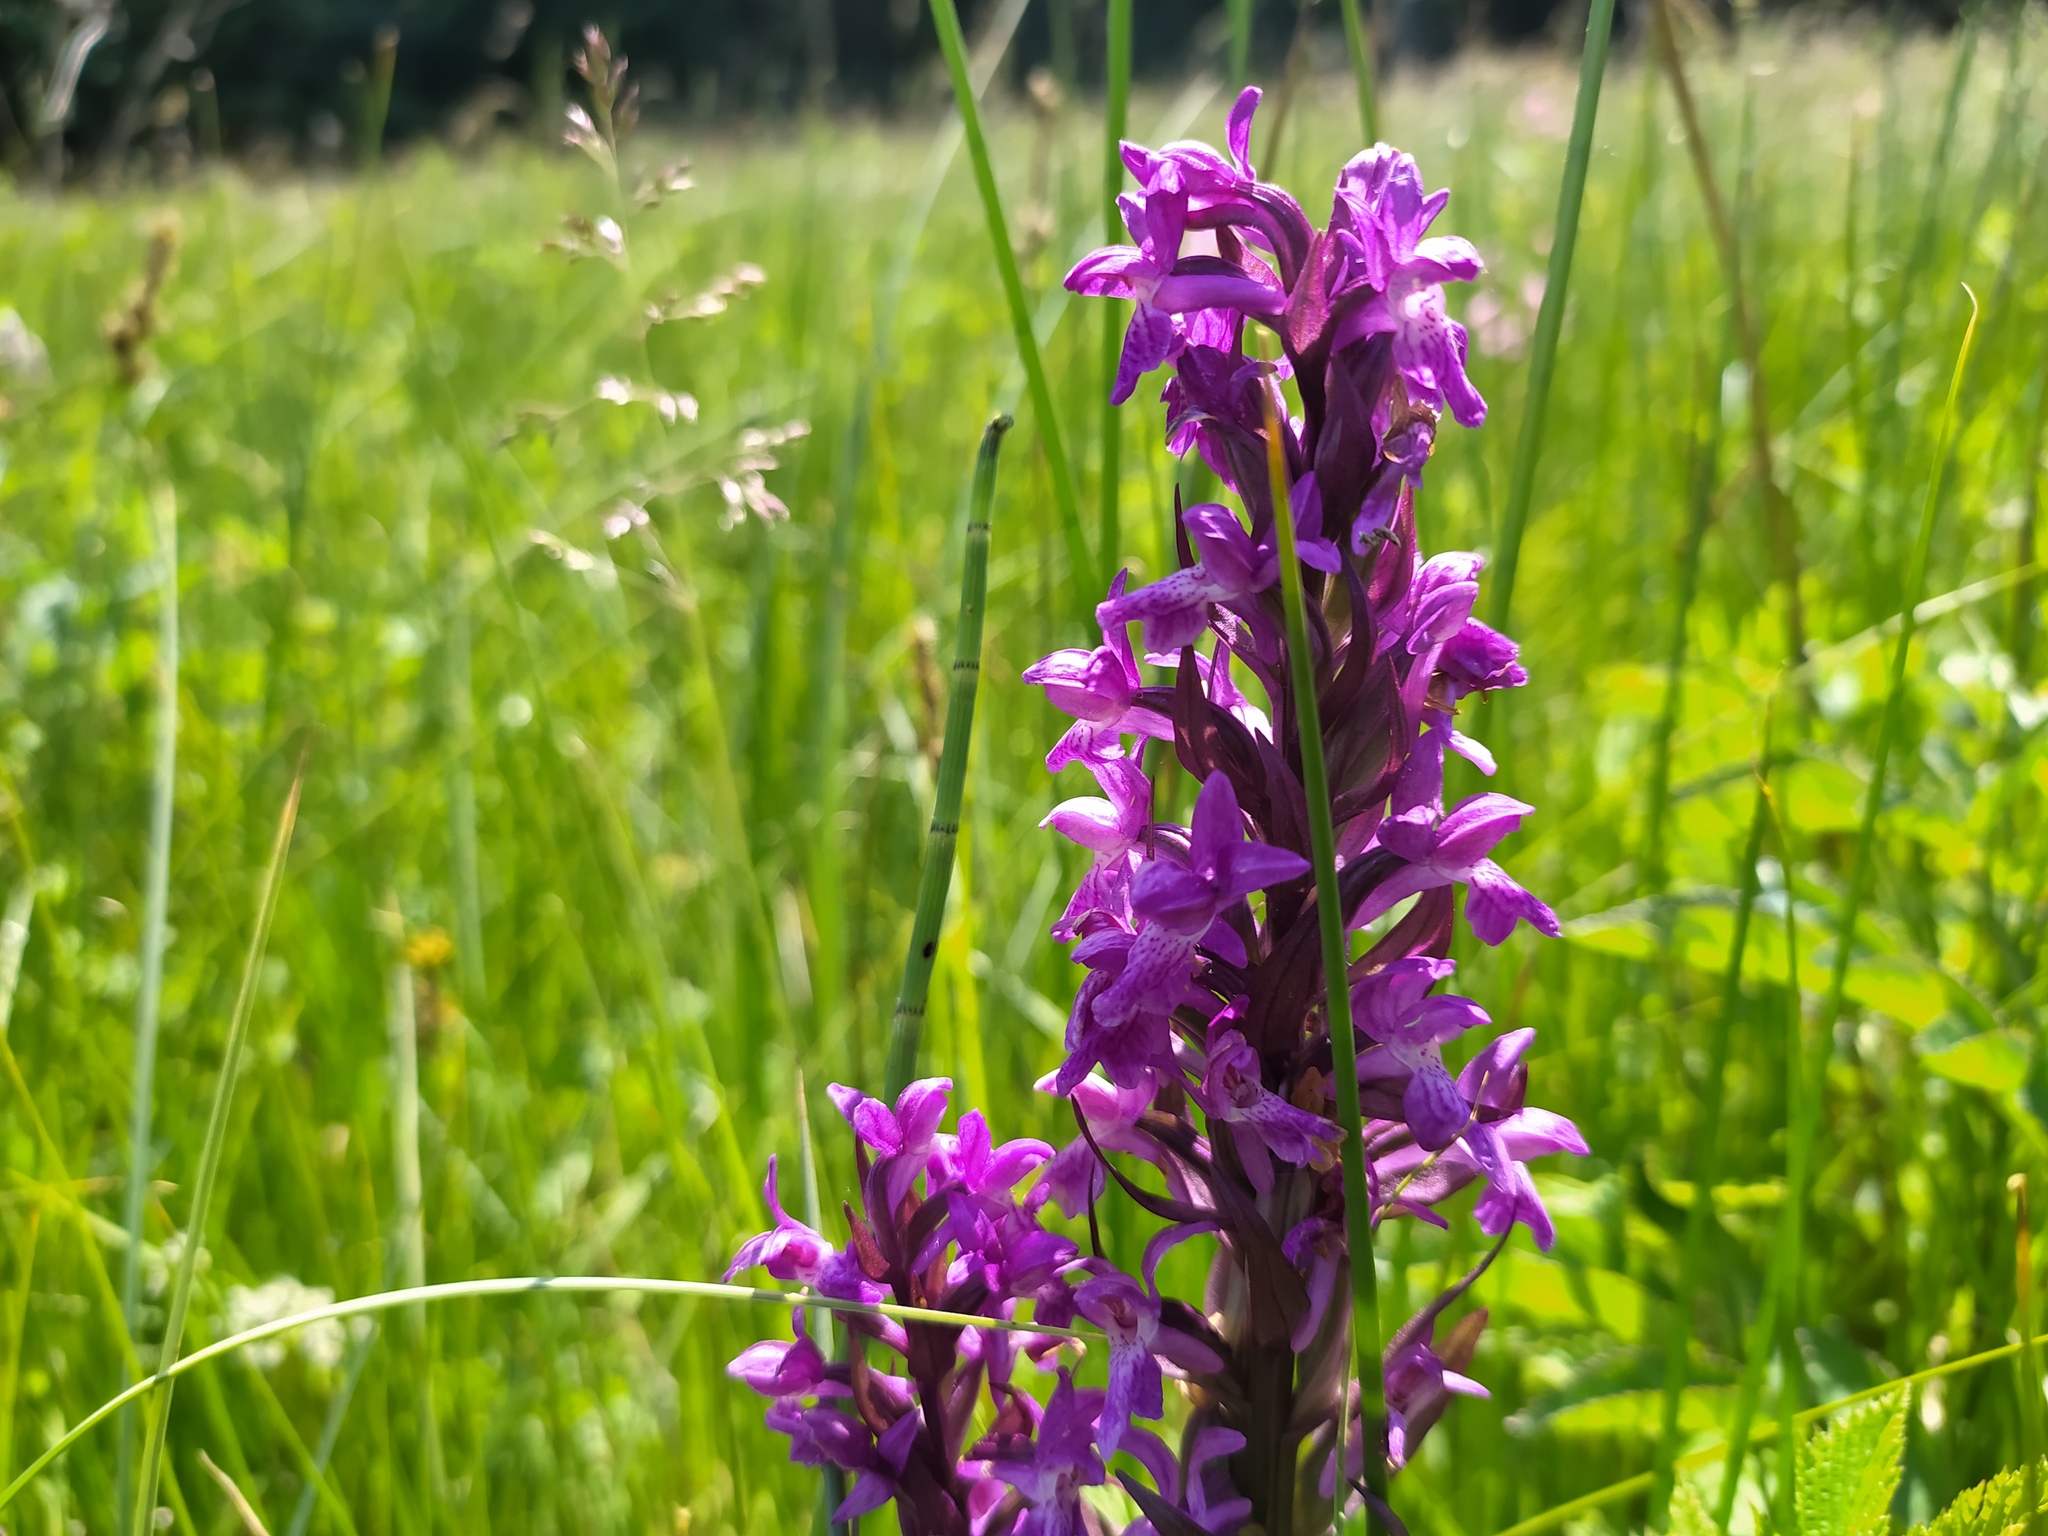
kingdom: Plantae
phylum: Tracheophyta
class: Liliopsida
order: Asparagales
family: Orchidaceae
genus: Dactylorhiza
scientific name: Dactylorhiza majalis
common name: Marsh orchid
